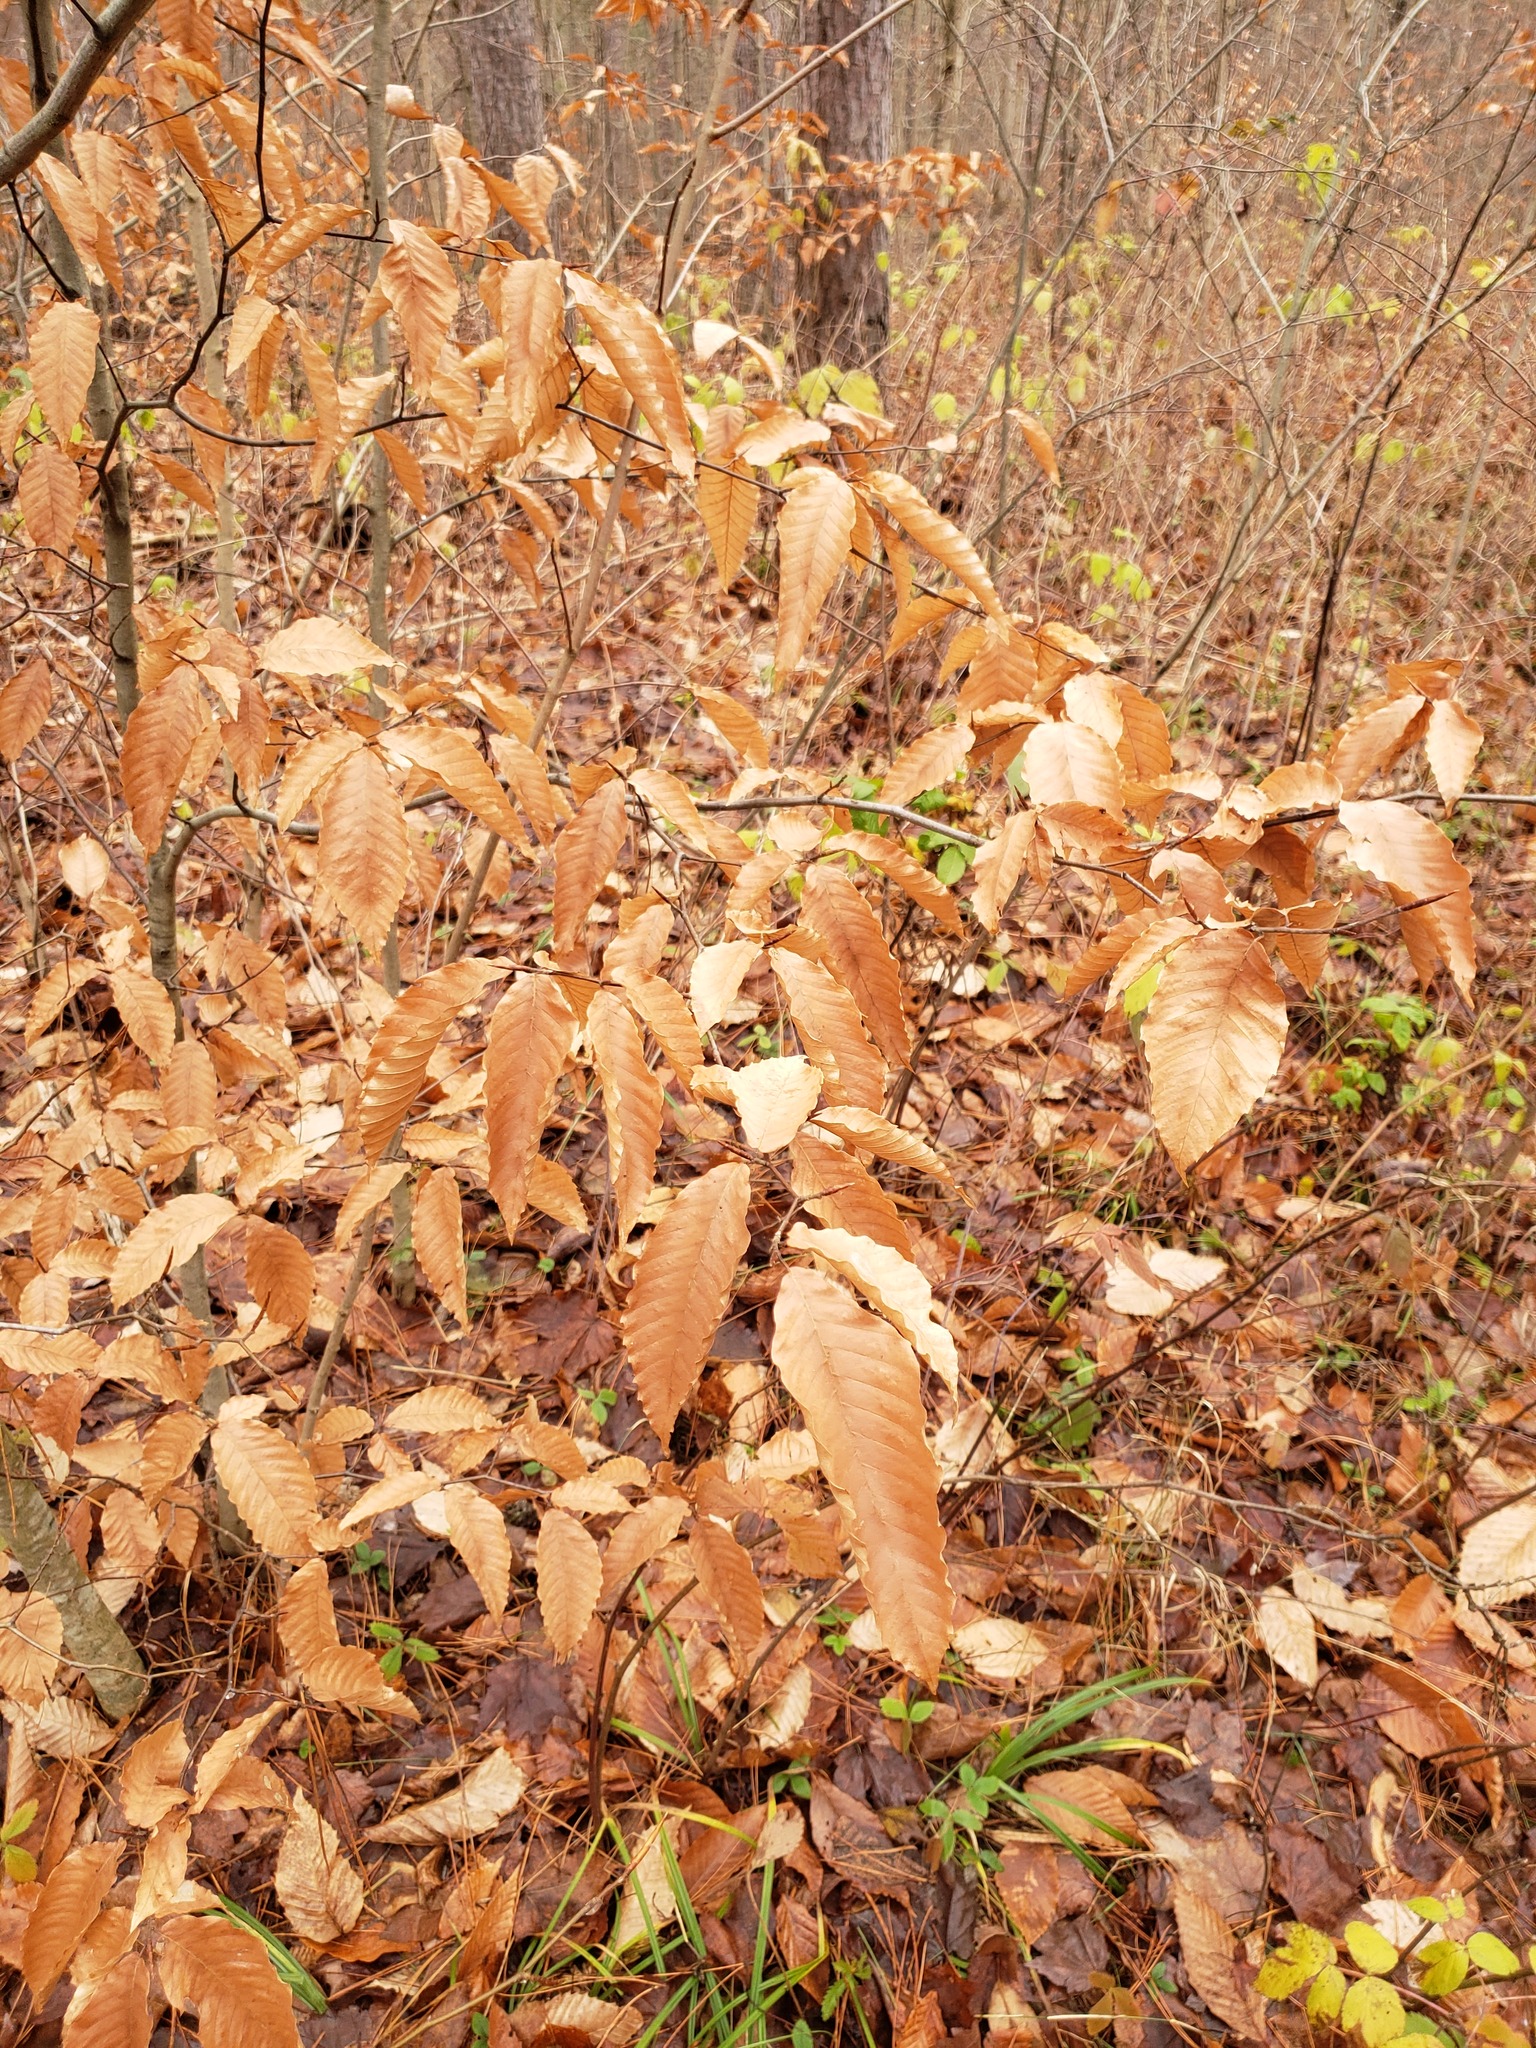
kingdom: Plantae
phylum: Tracheophyta
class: Magnoliopsida
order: Fagales
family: Fagaceae
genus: Fagus
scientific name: Fagus grandifolia
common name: American beech
